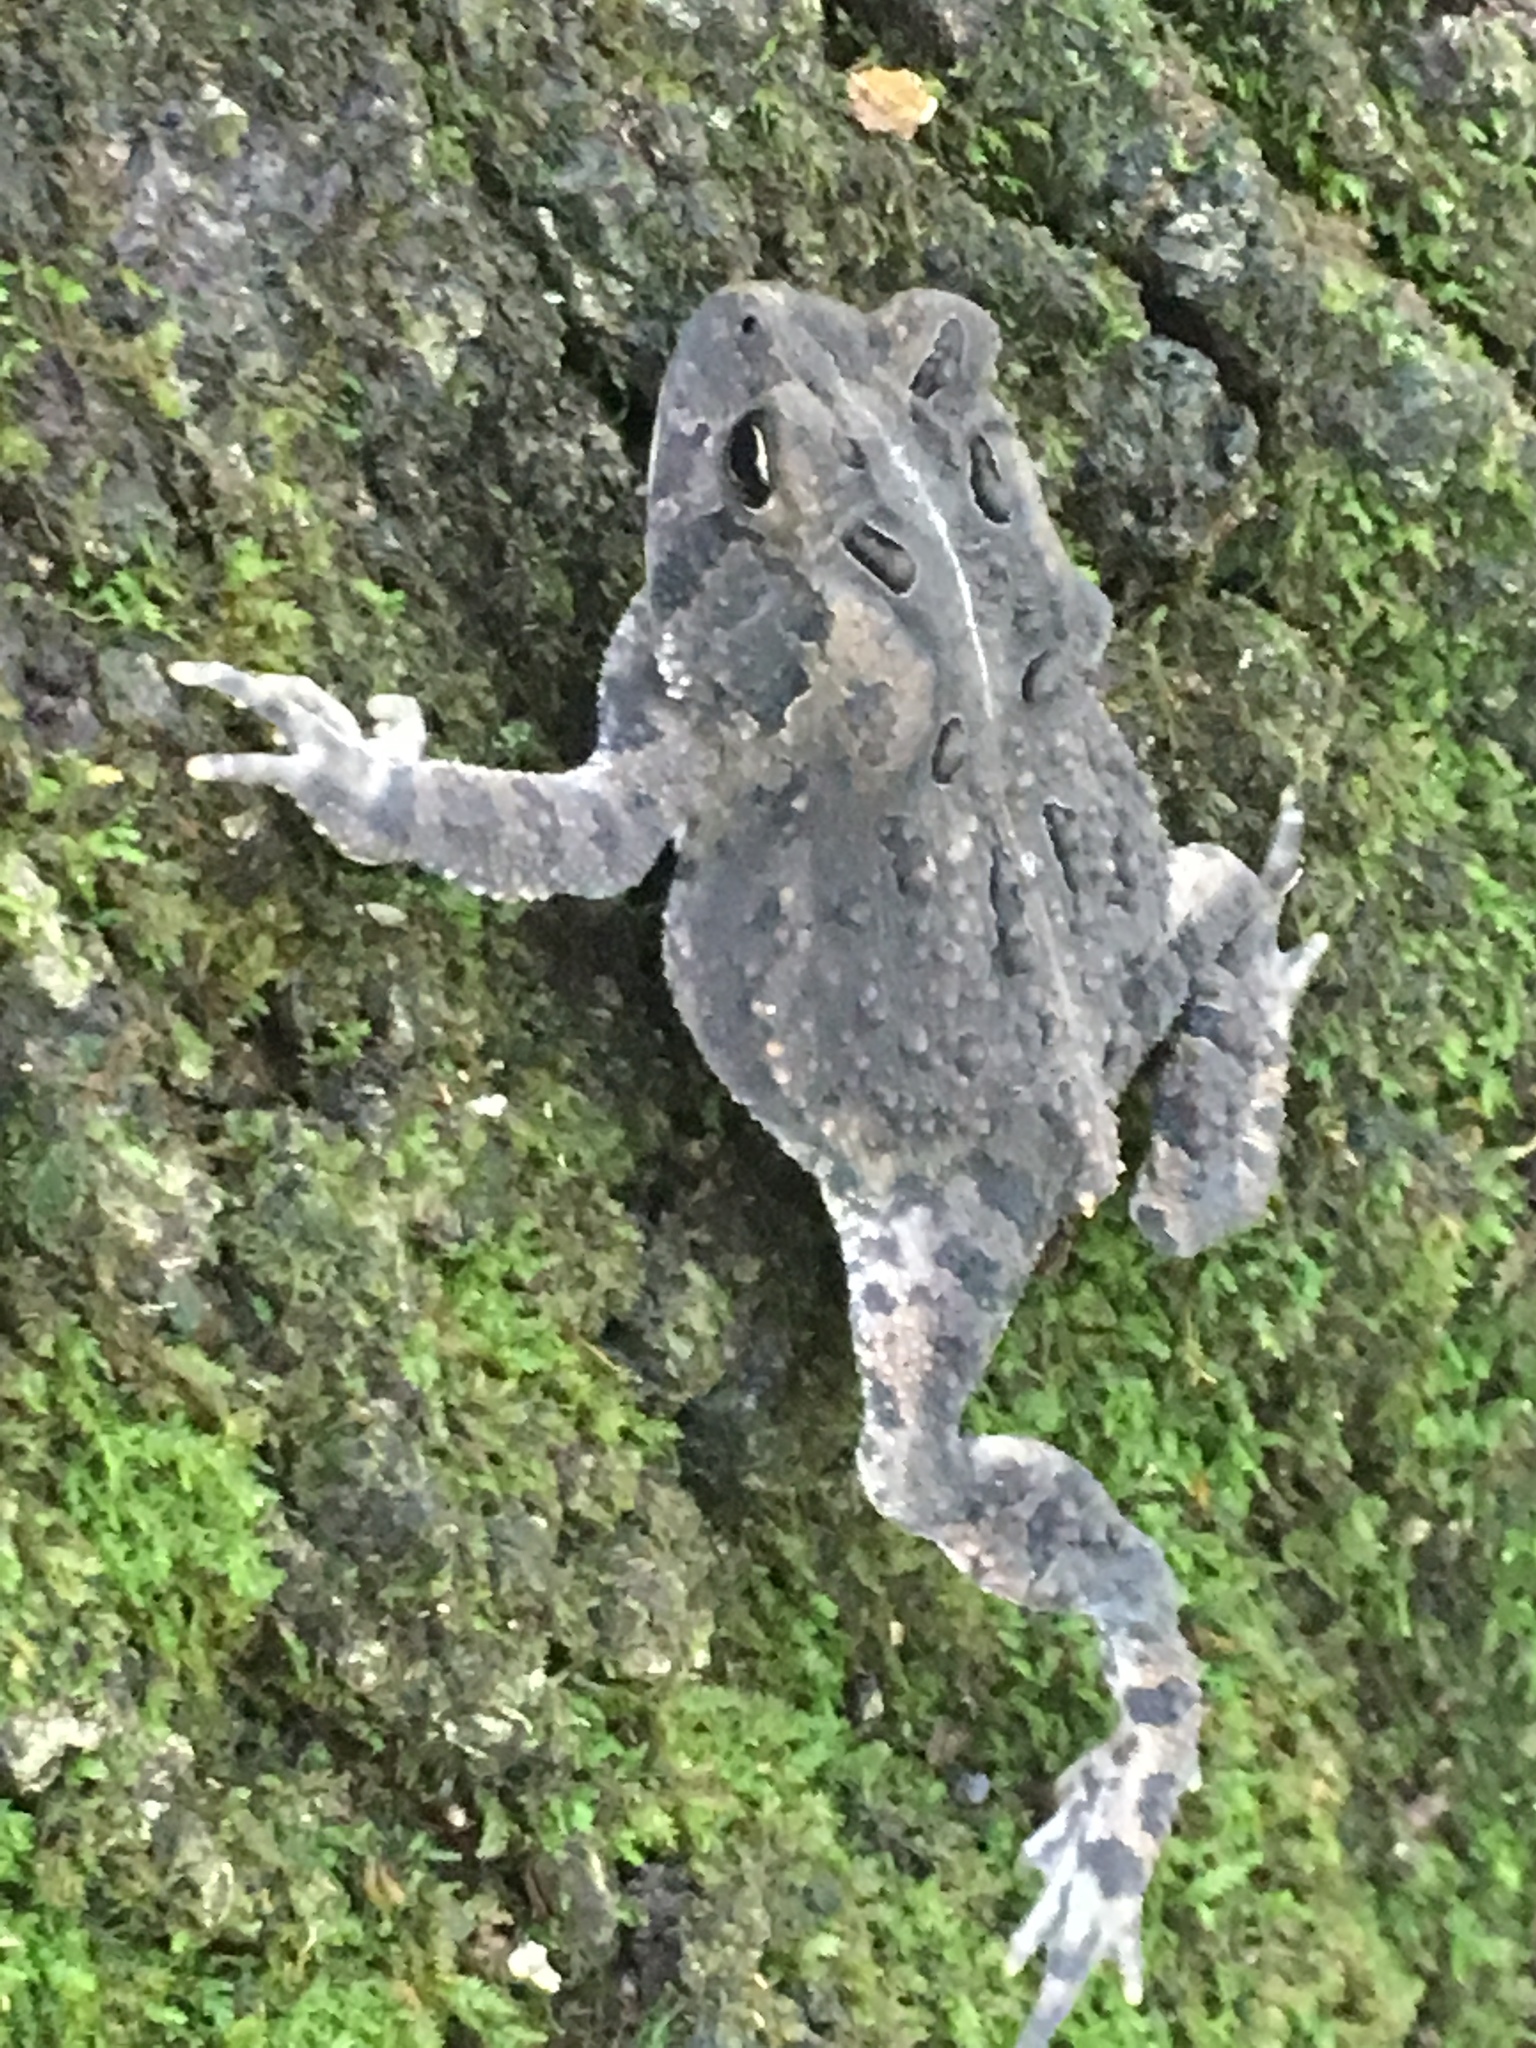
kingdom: Animalia
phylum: Chordata
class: Amphibia
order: Anura
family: Bufonidae
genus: Anaxyrus
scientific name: Anaxyrus americanus
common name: American toad
